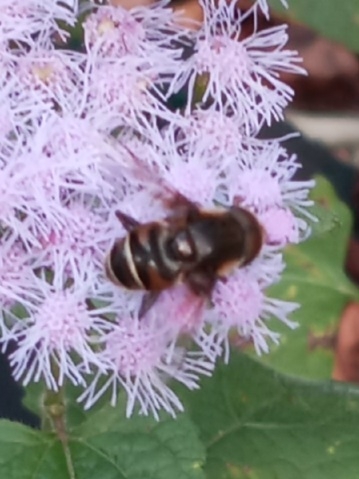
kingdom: Animalia
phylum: Arthropoda
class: Insecta
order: Diptera
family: Syrphidae
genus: Eristalis
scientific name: Eristalis dimidiata
